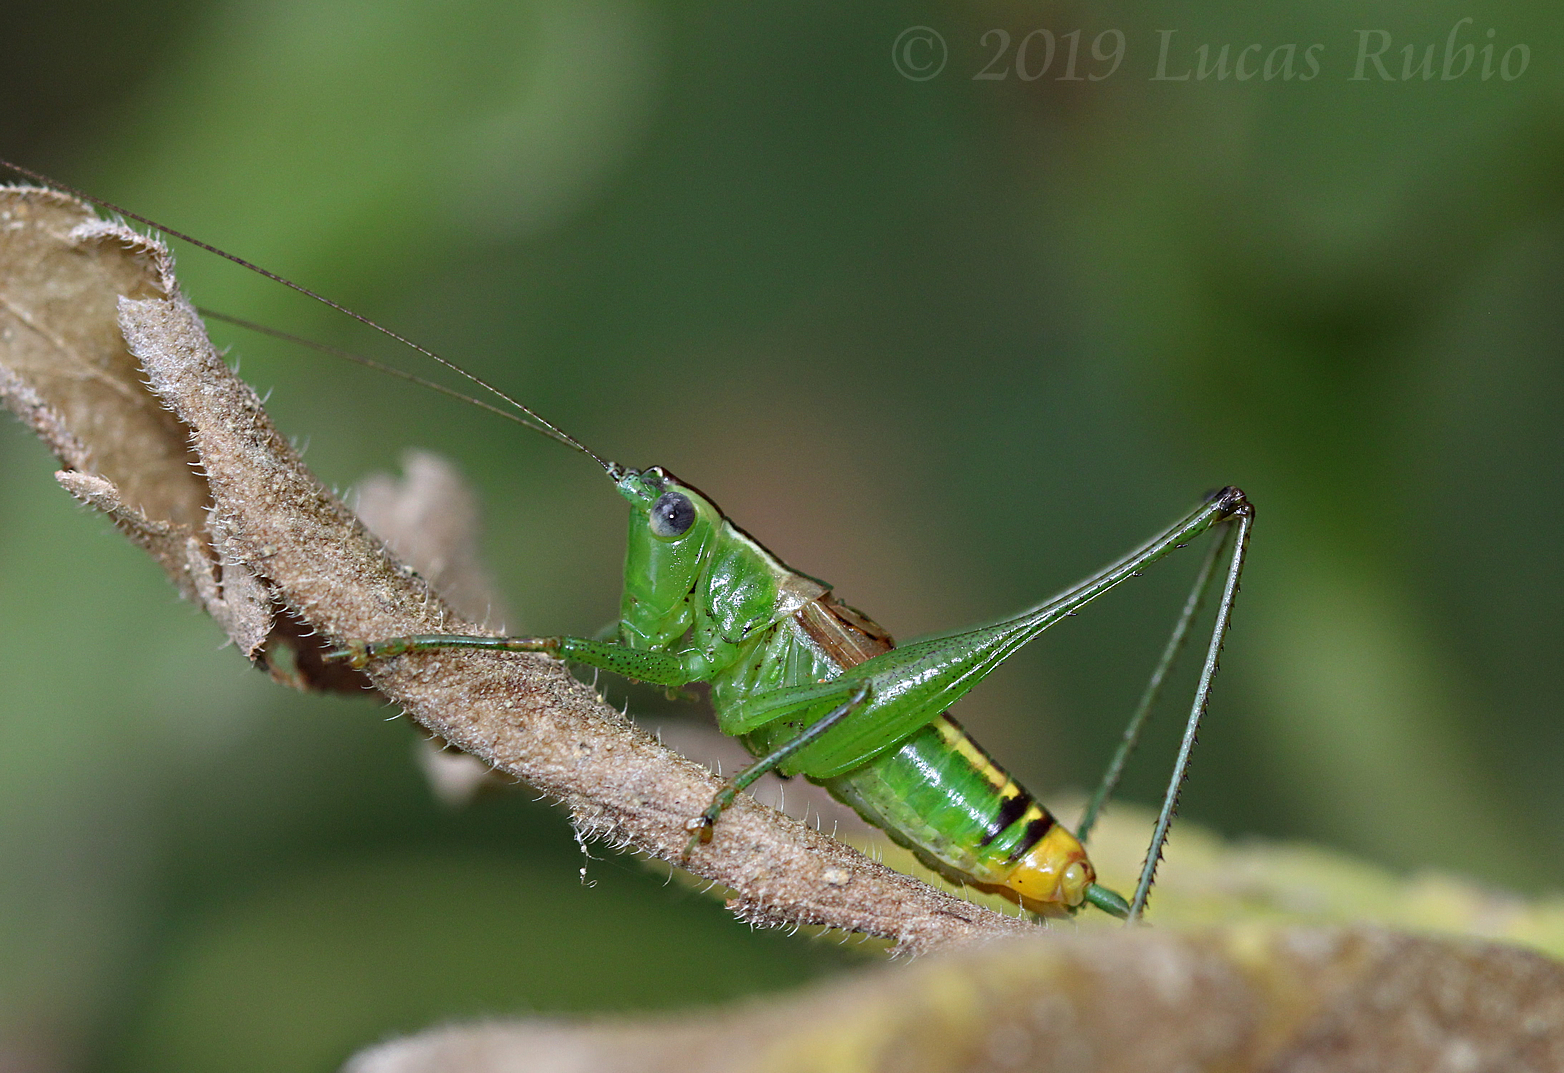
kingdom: Animalia
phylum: Arthropoda
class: Insecta
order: Orthoptera
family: Tettigoniidae
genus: Conocephalus
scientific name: Conocephalus ochrotelus
